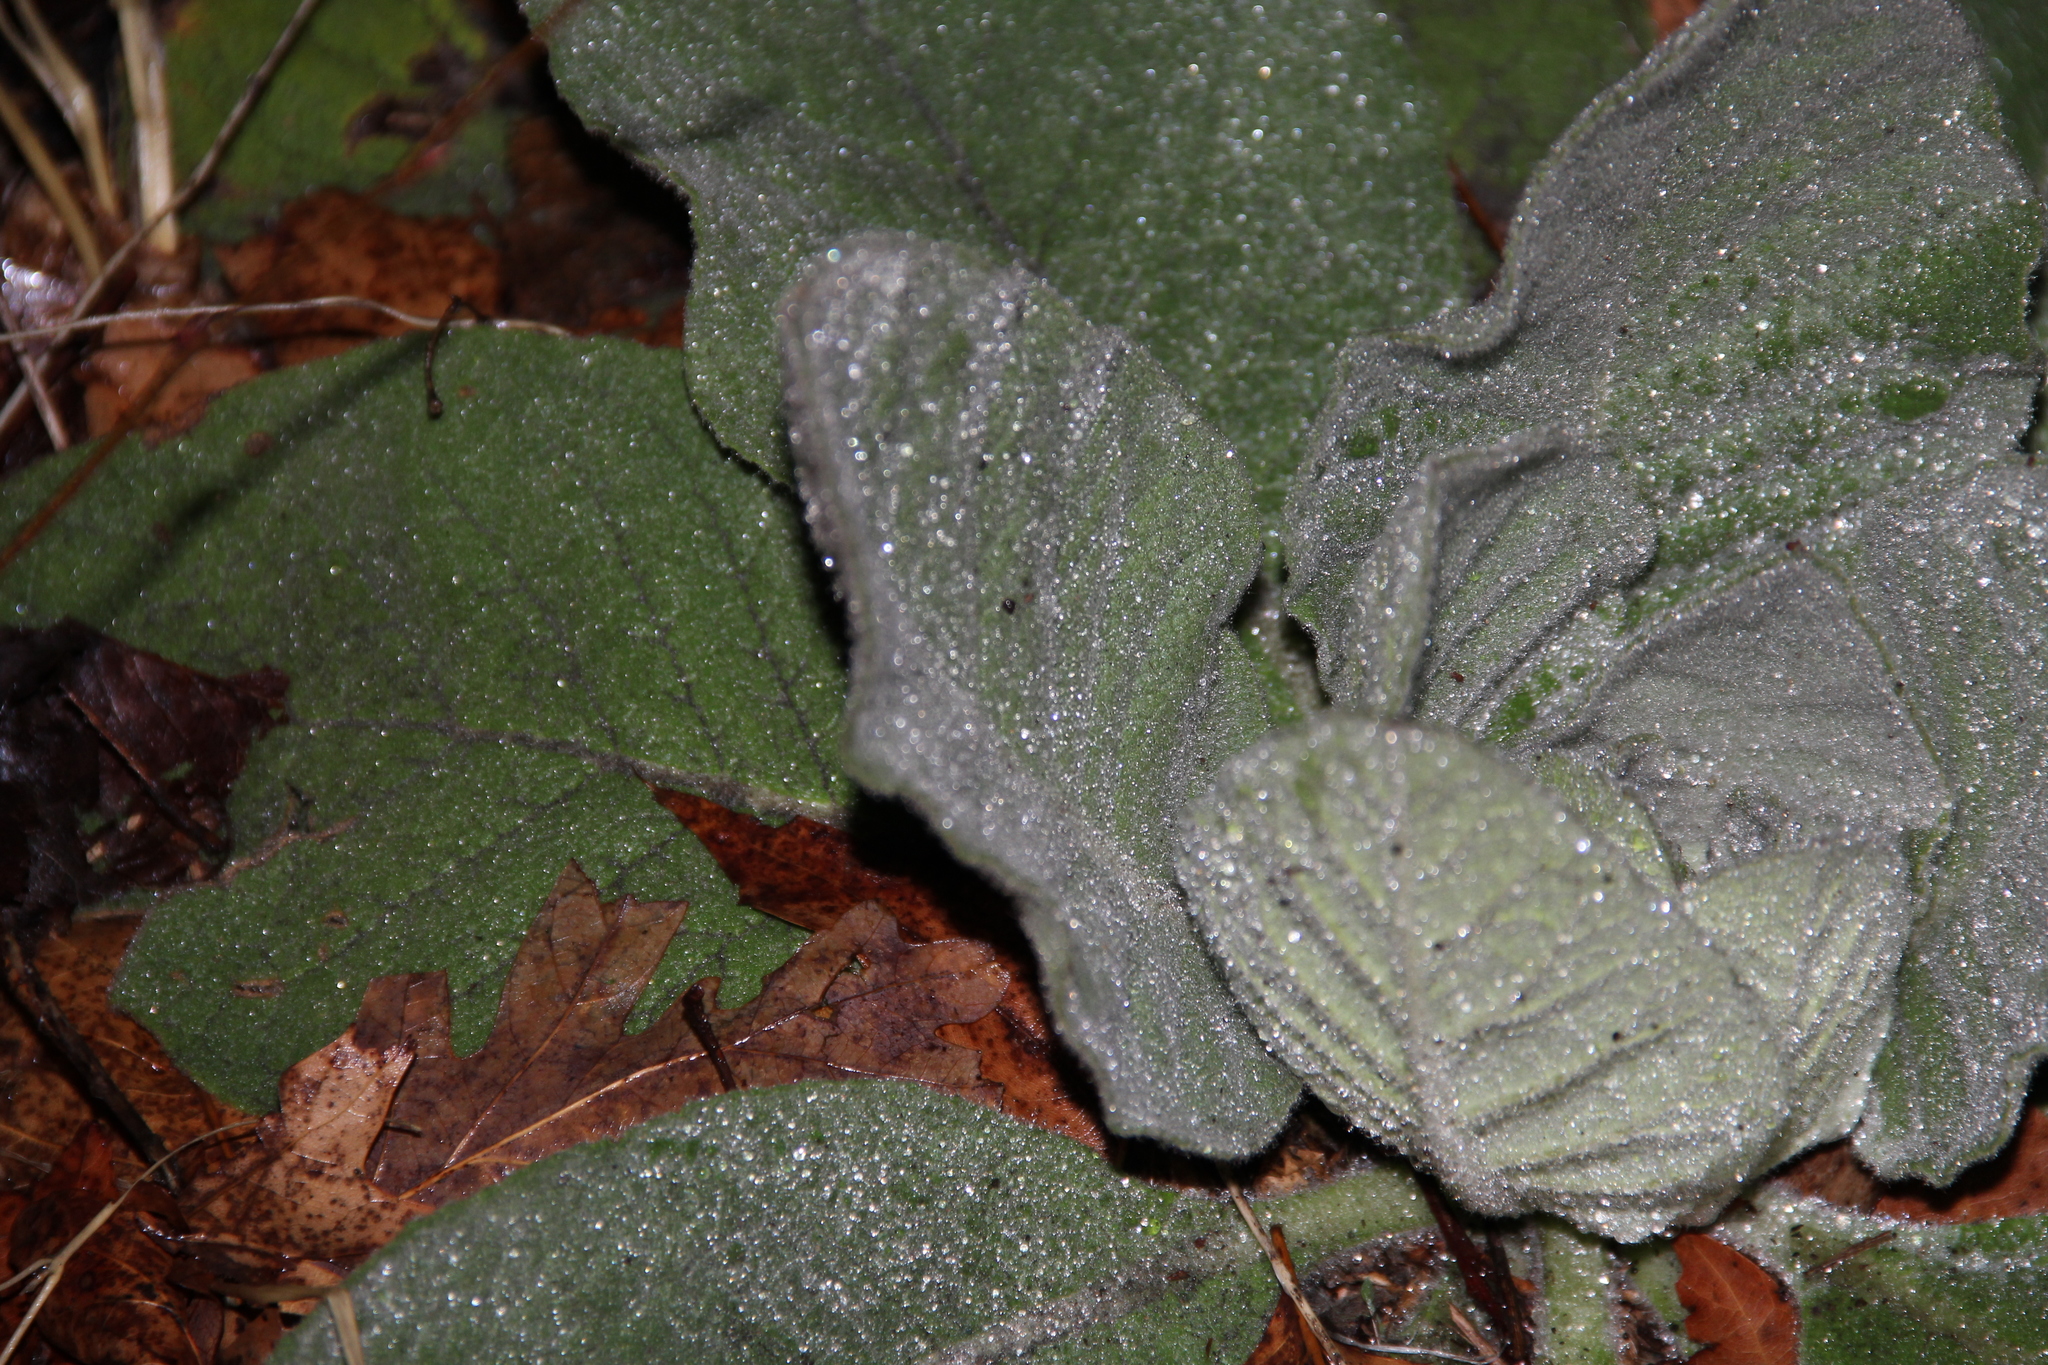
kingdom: Plantae
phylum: Tracheophyta
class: Magnoliopsida
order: Lamiales
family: Scrophulariaceae
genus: Verbascum
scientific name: Verbascum thapsus
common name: Common mullein
